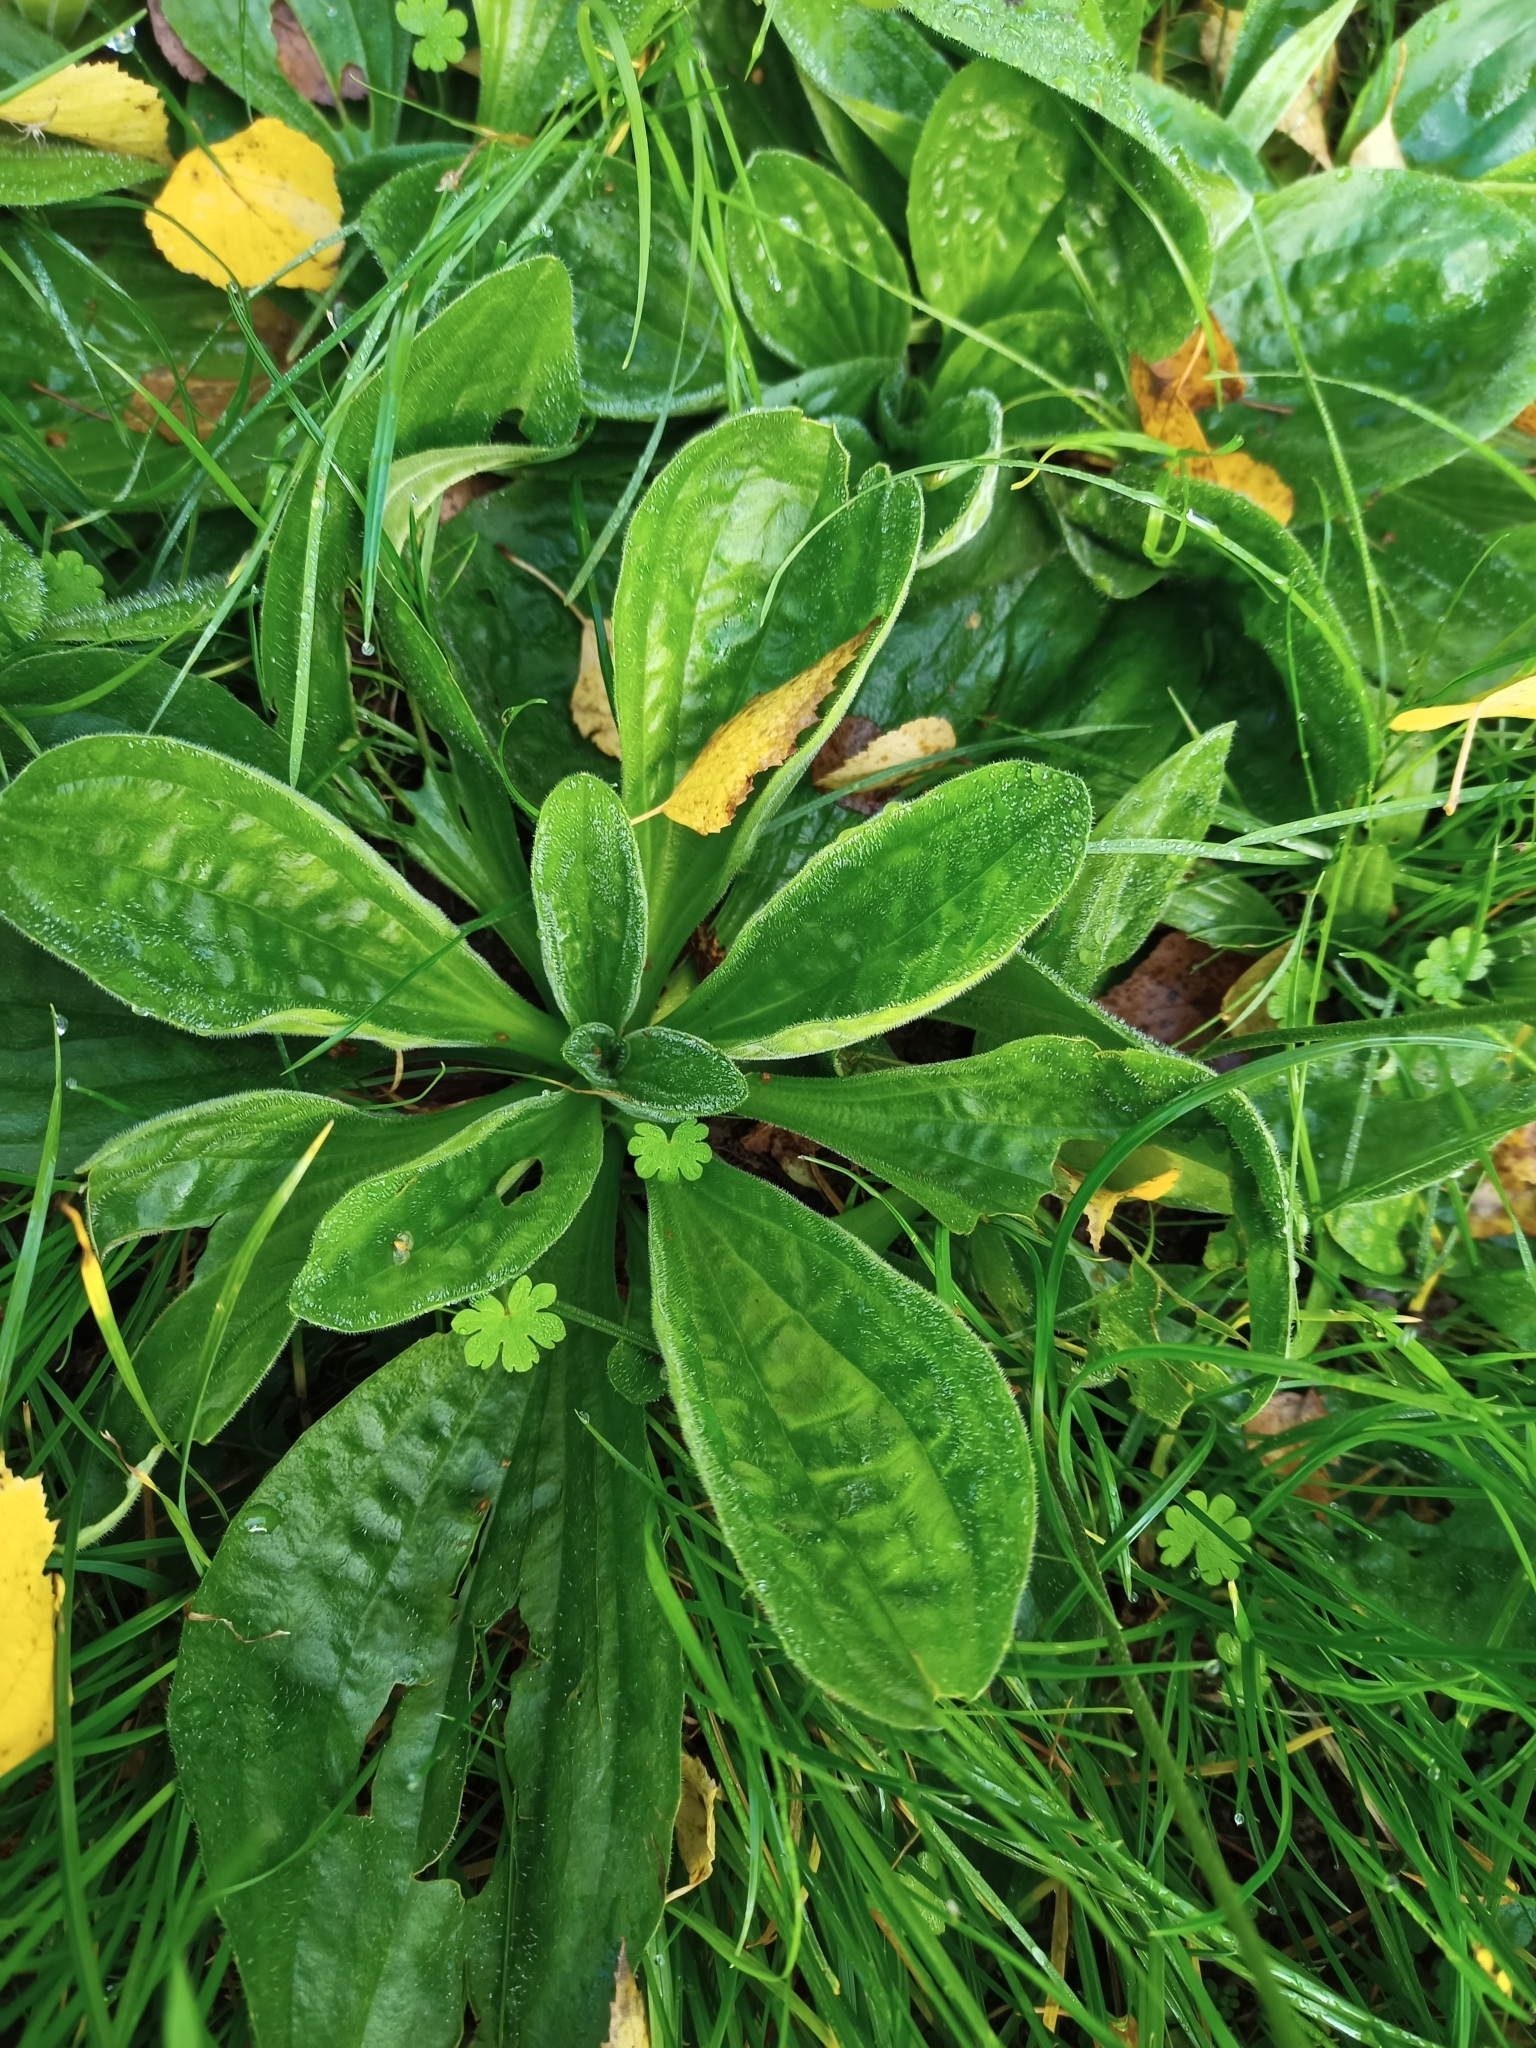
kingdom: Plantae
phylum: Tracheophyta
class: Magnoliopsida
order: Lamiales
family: Plantaginaceae
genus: Plantago
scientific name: Plantago media
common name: Hoary plantain
